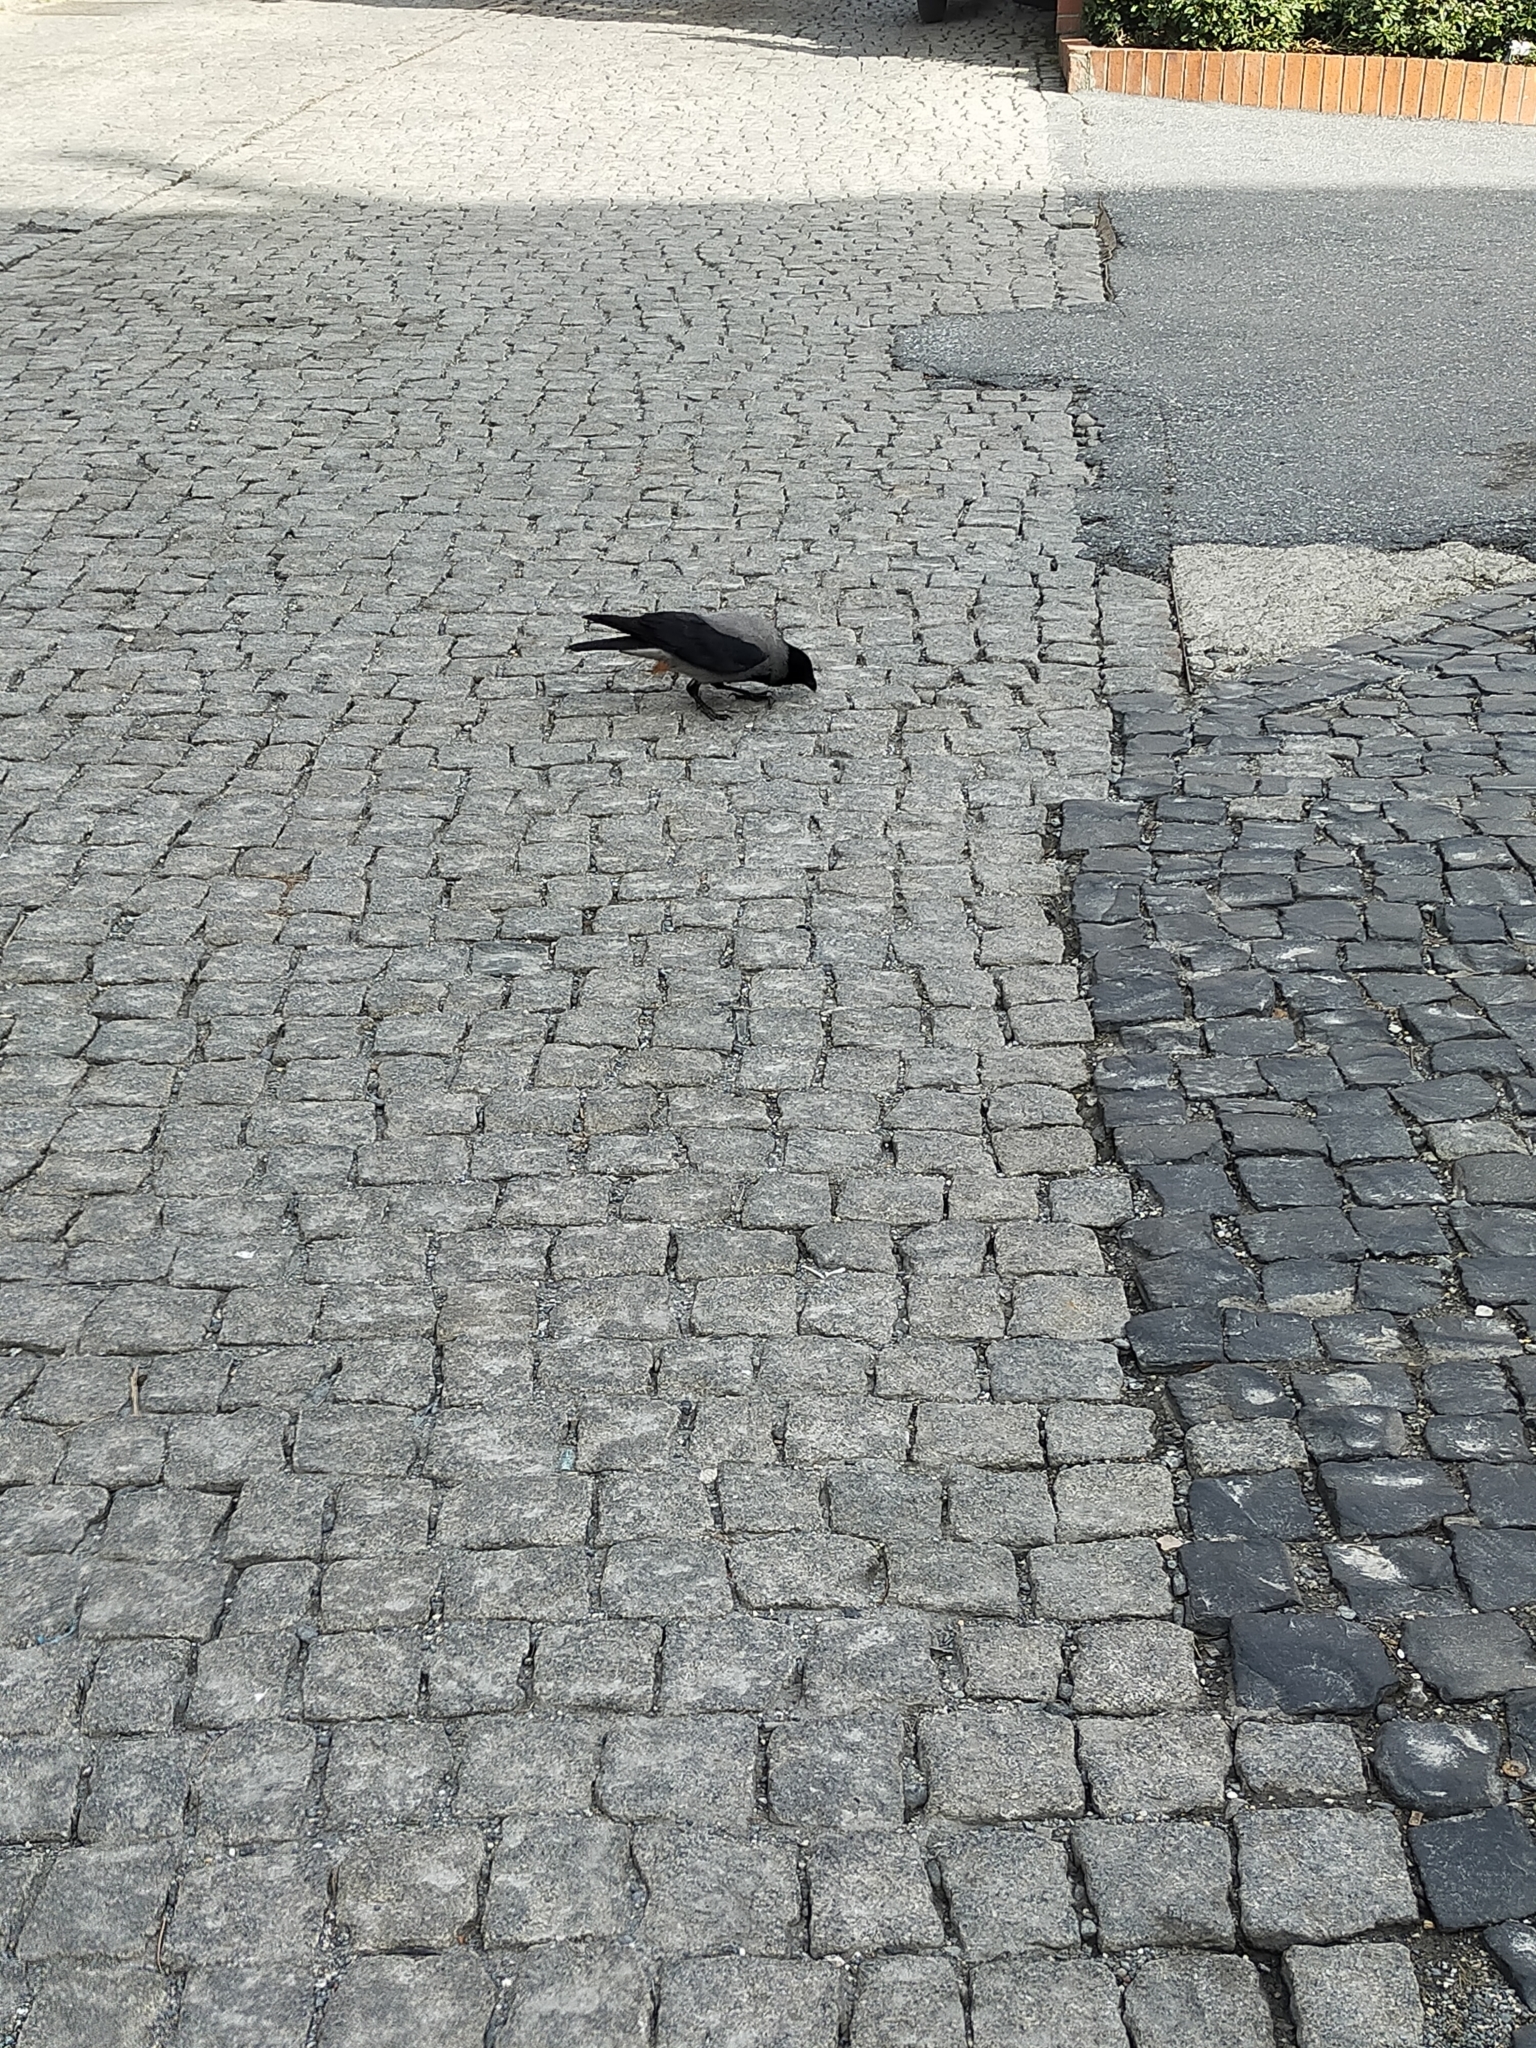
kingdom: Animalia
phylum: Chordata
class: Aves
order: Passeriformes
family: Corvidae
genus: Corvus
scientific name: Corvus cornix
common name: Hooded crow
